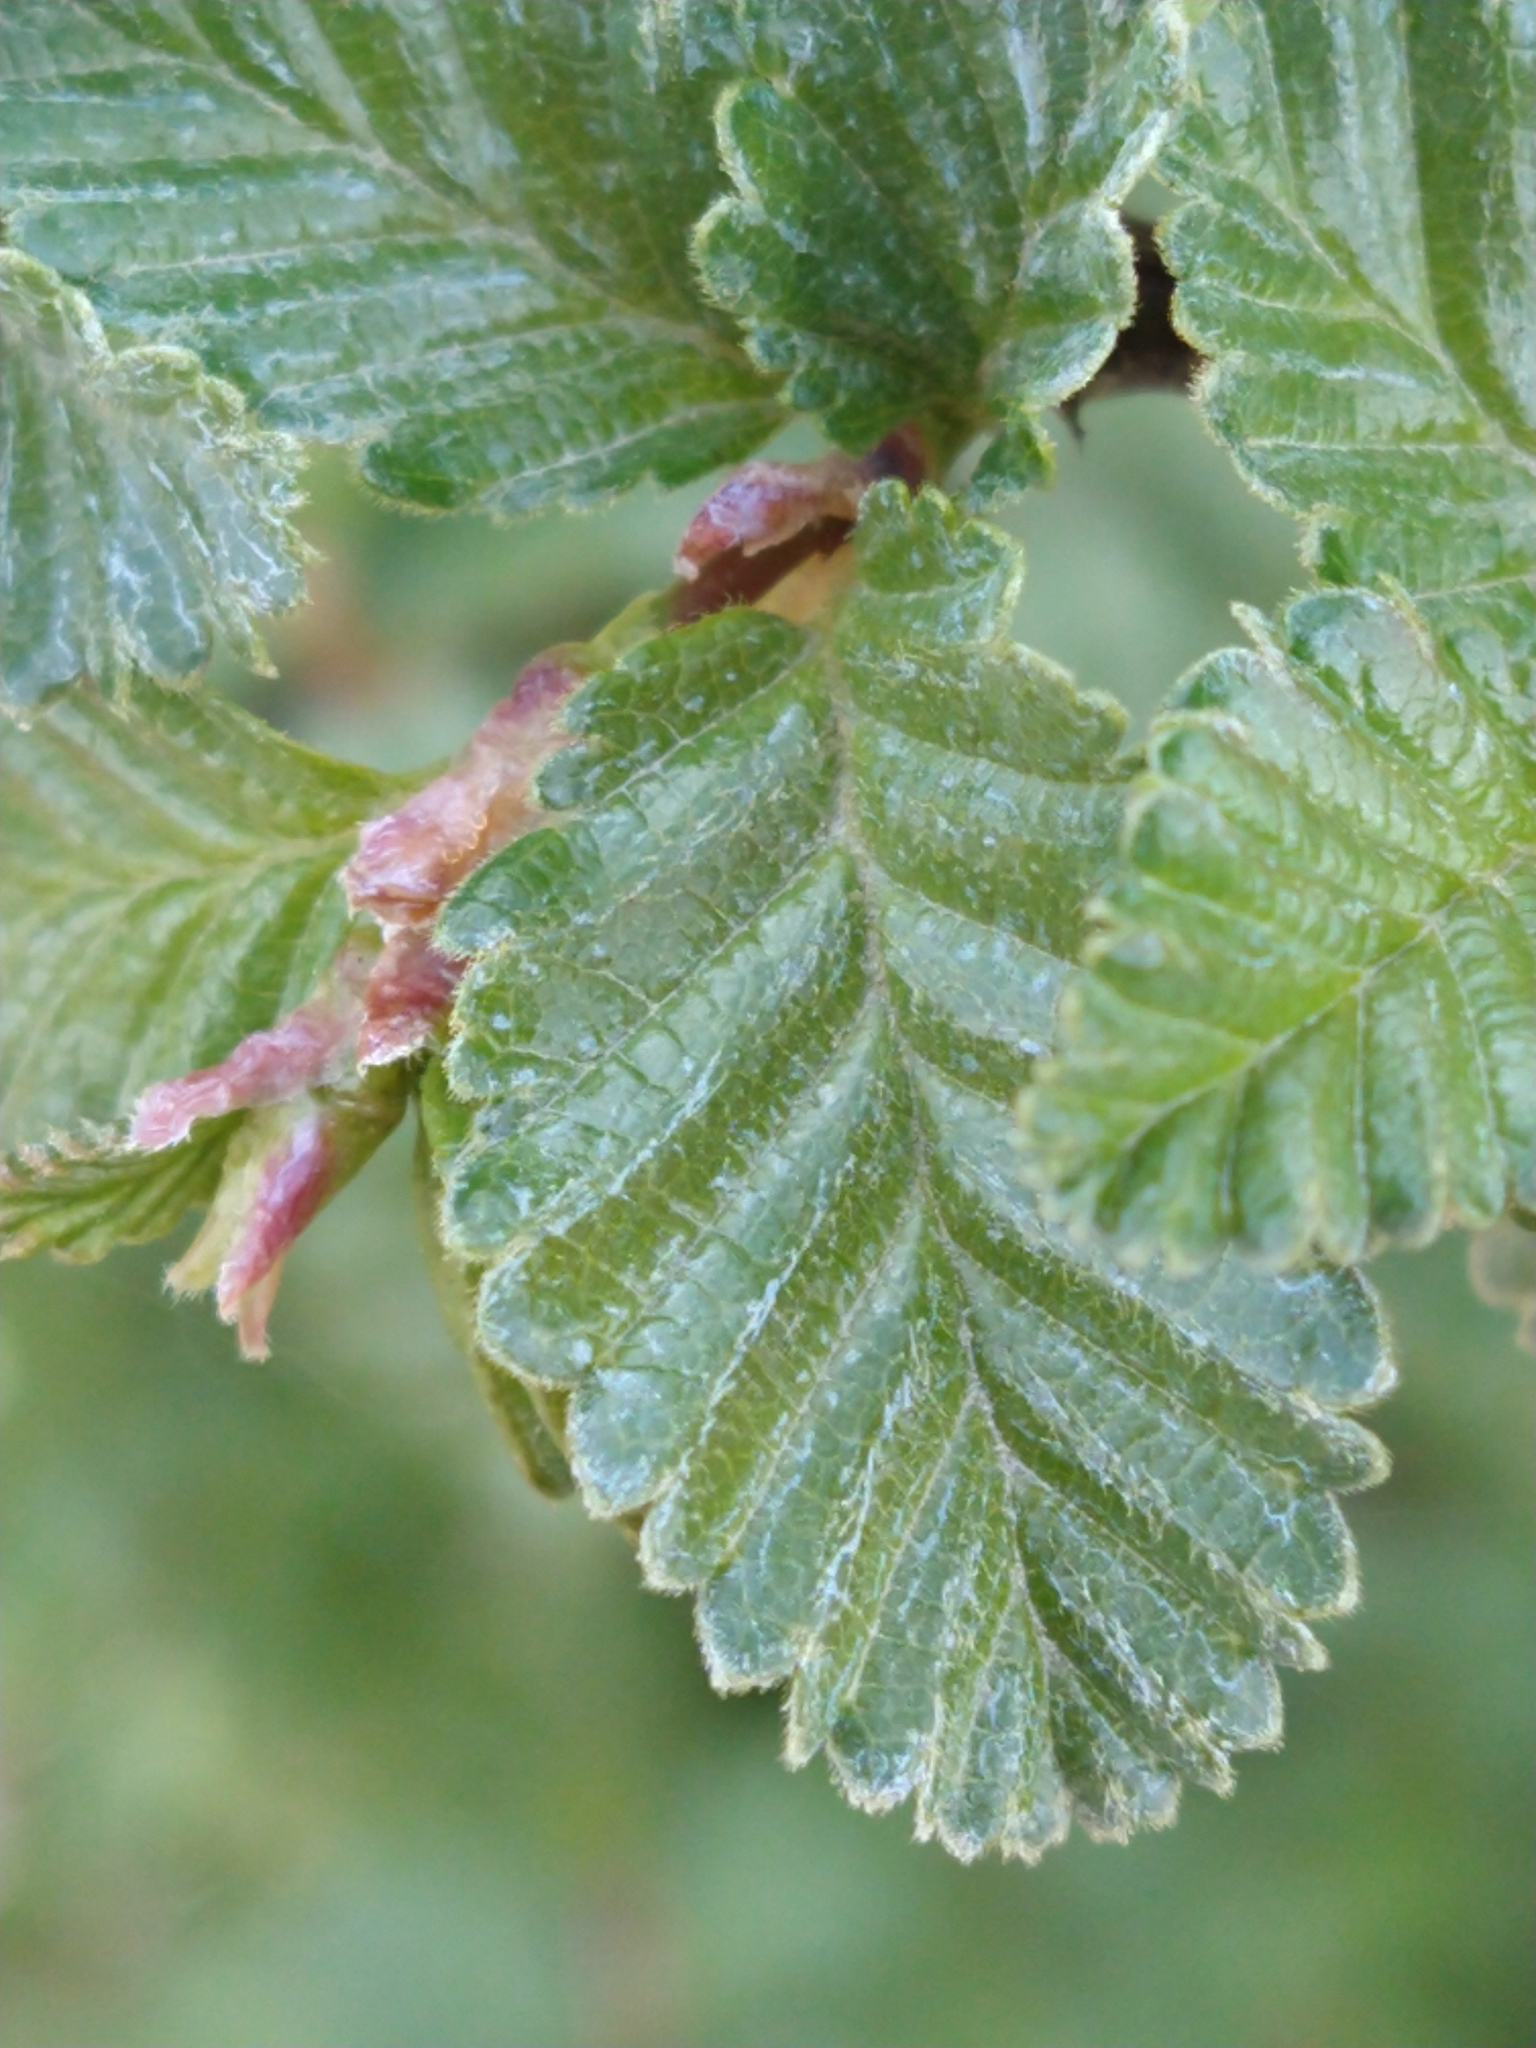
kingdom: Plantae
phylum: Tracheophyta
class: Magnoliopsida
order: Fagales
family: Nothofagaceae
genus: Nothofagus
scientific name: Nothofagus pumilio
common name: Lenga beech
